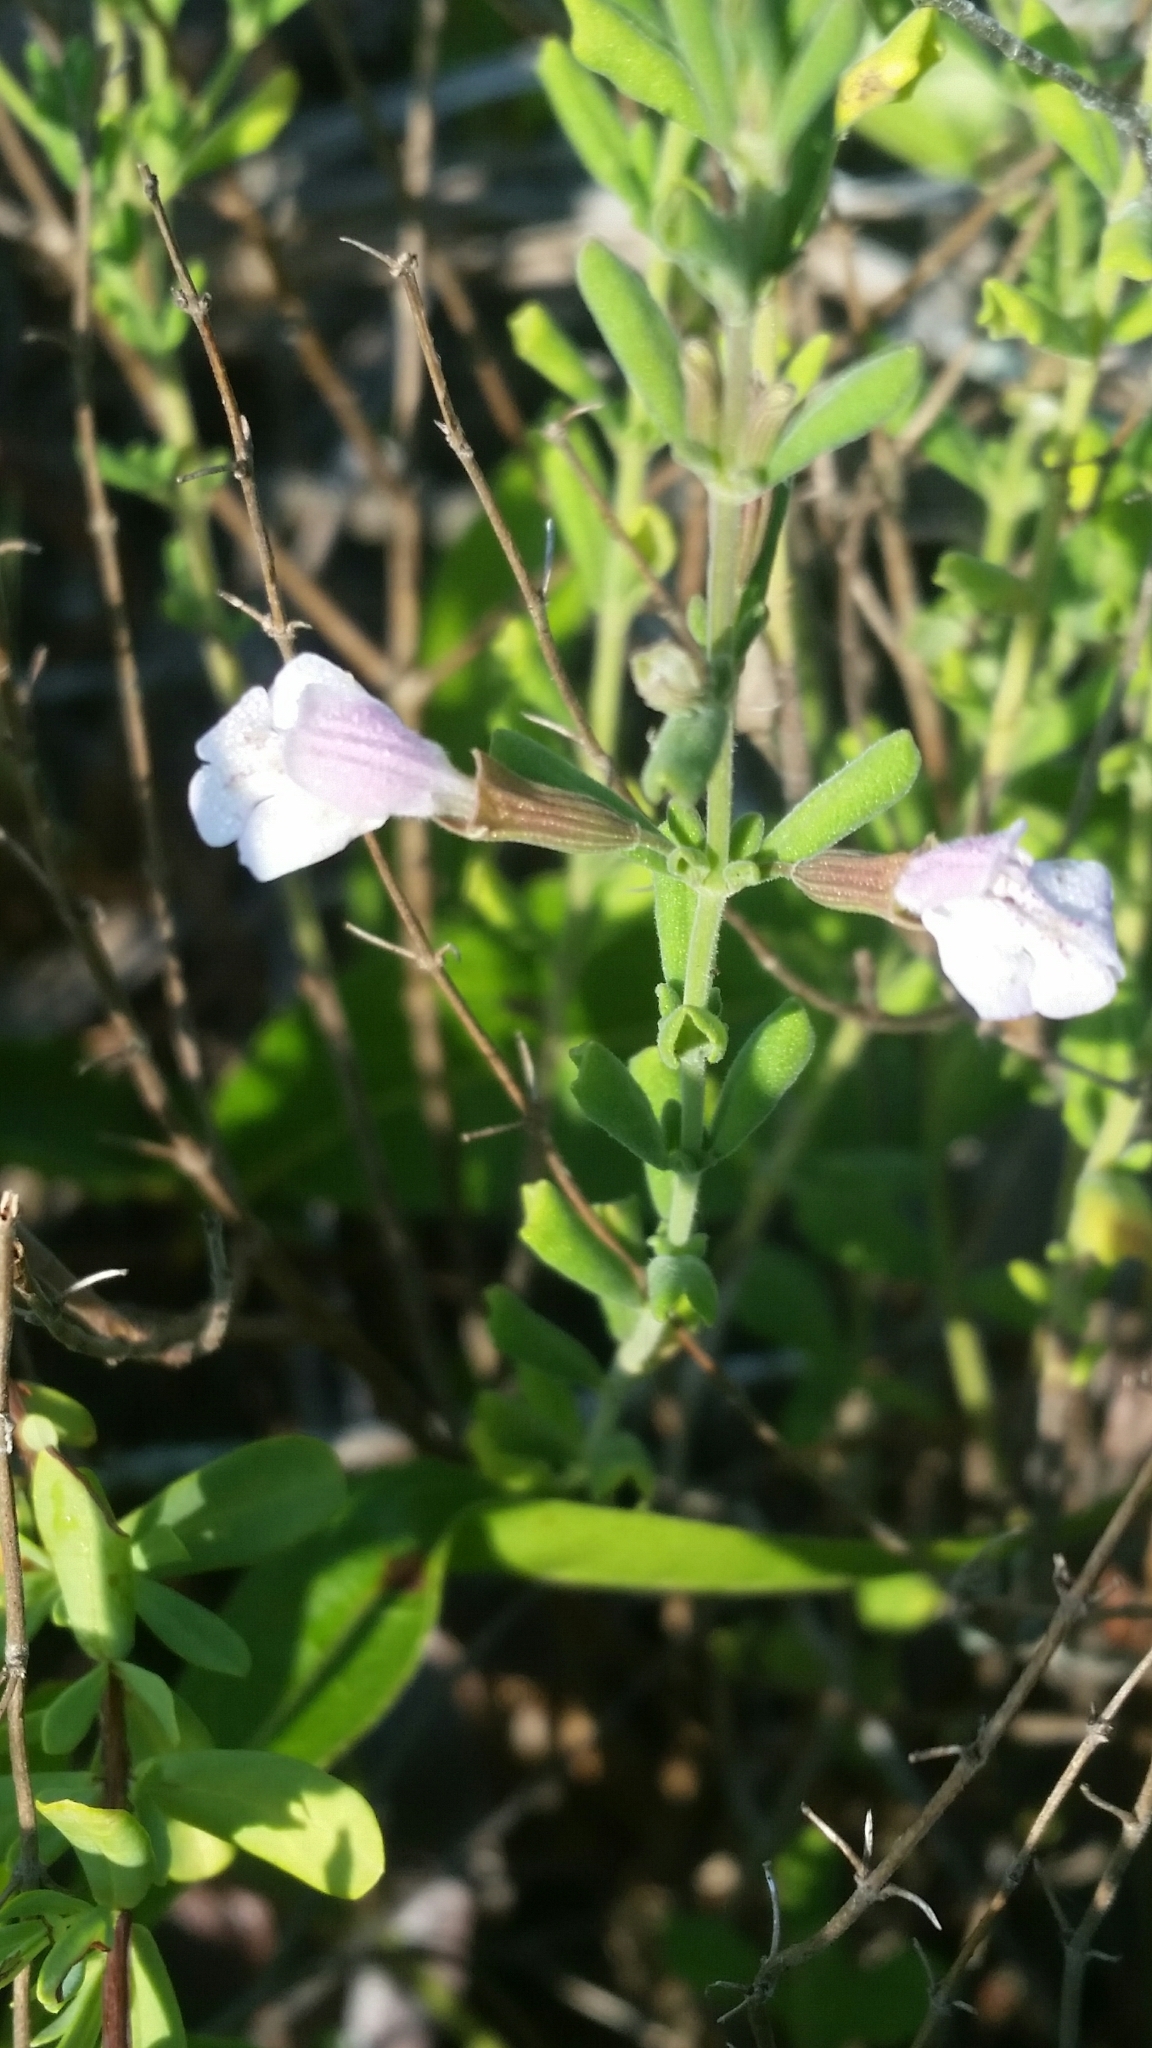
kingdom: Plantae
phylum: Tracheophyta
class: Magnoliopsida
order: Lamiales
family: Lamiaceae
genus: Clinopodium
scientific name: Clinopodium dentatum
